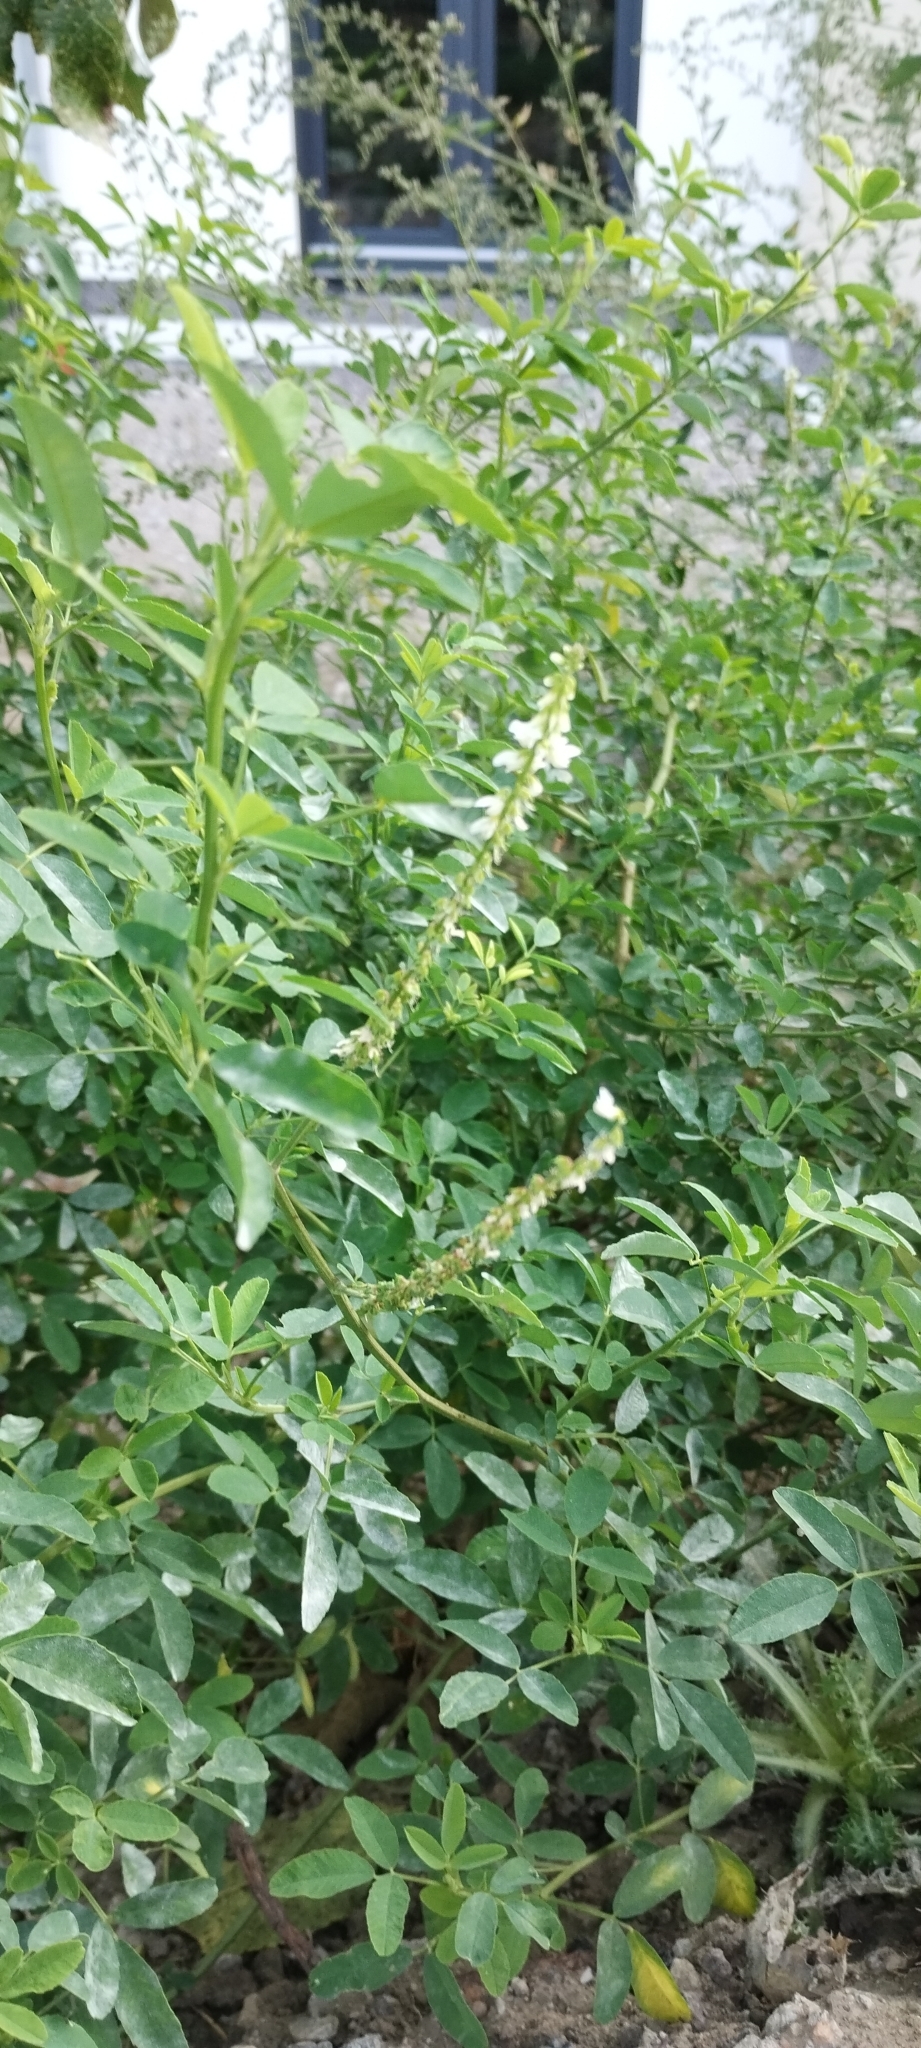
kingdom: Plantae
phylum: Tracheophyta
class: Magnoliopsida
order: Fabales
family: Fabaceae
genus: Melilotus
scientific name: Melilotus albus
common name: White melilot
